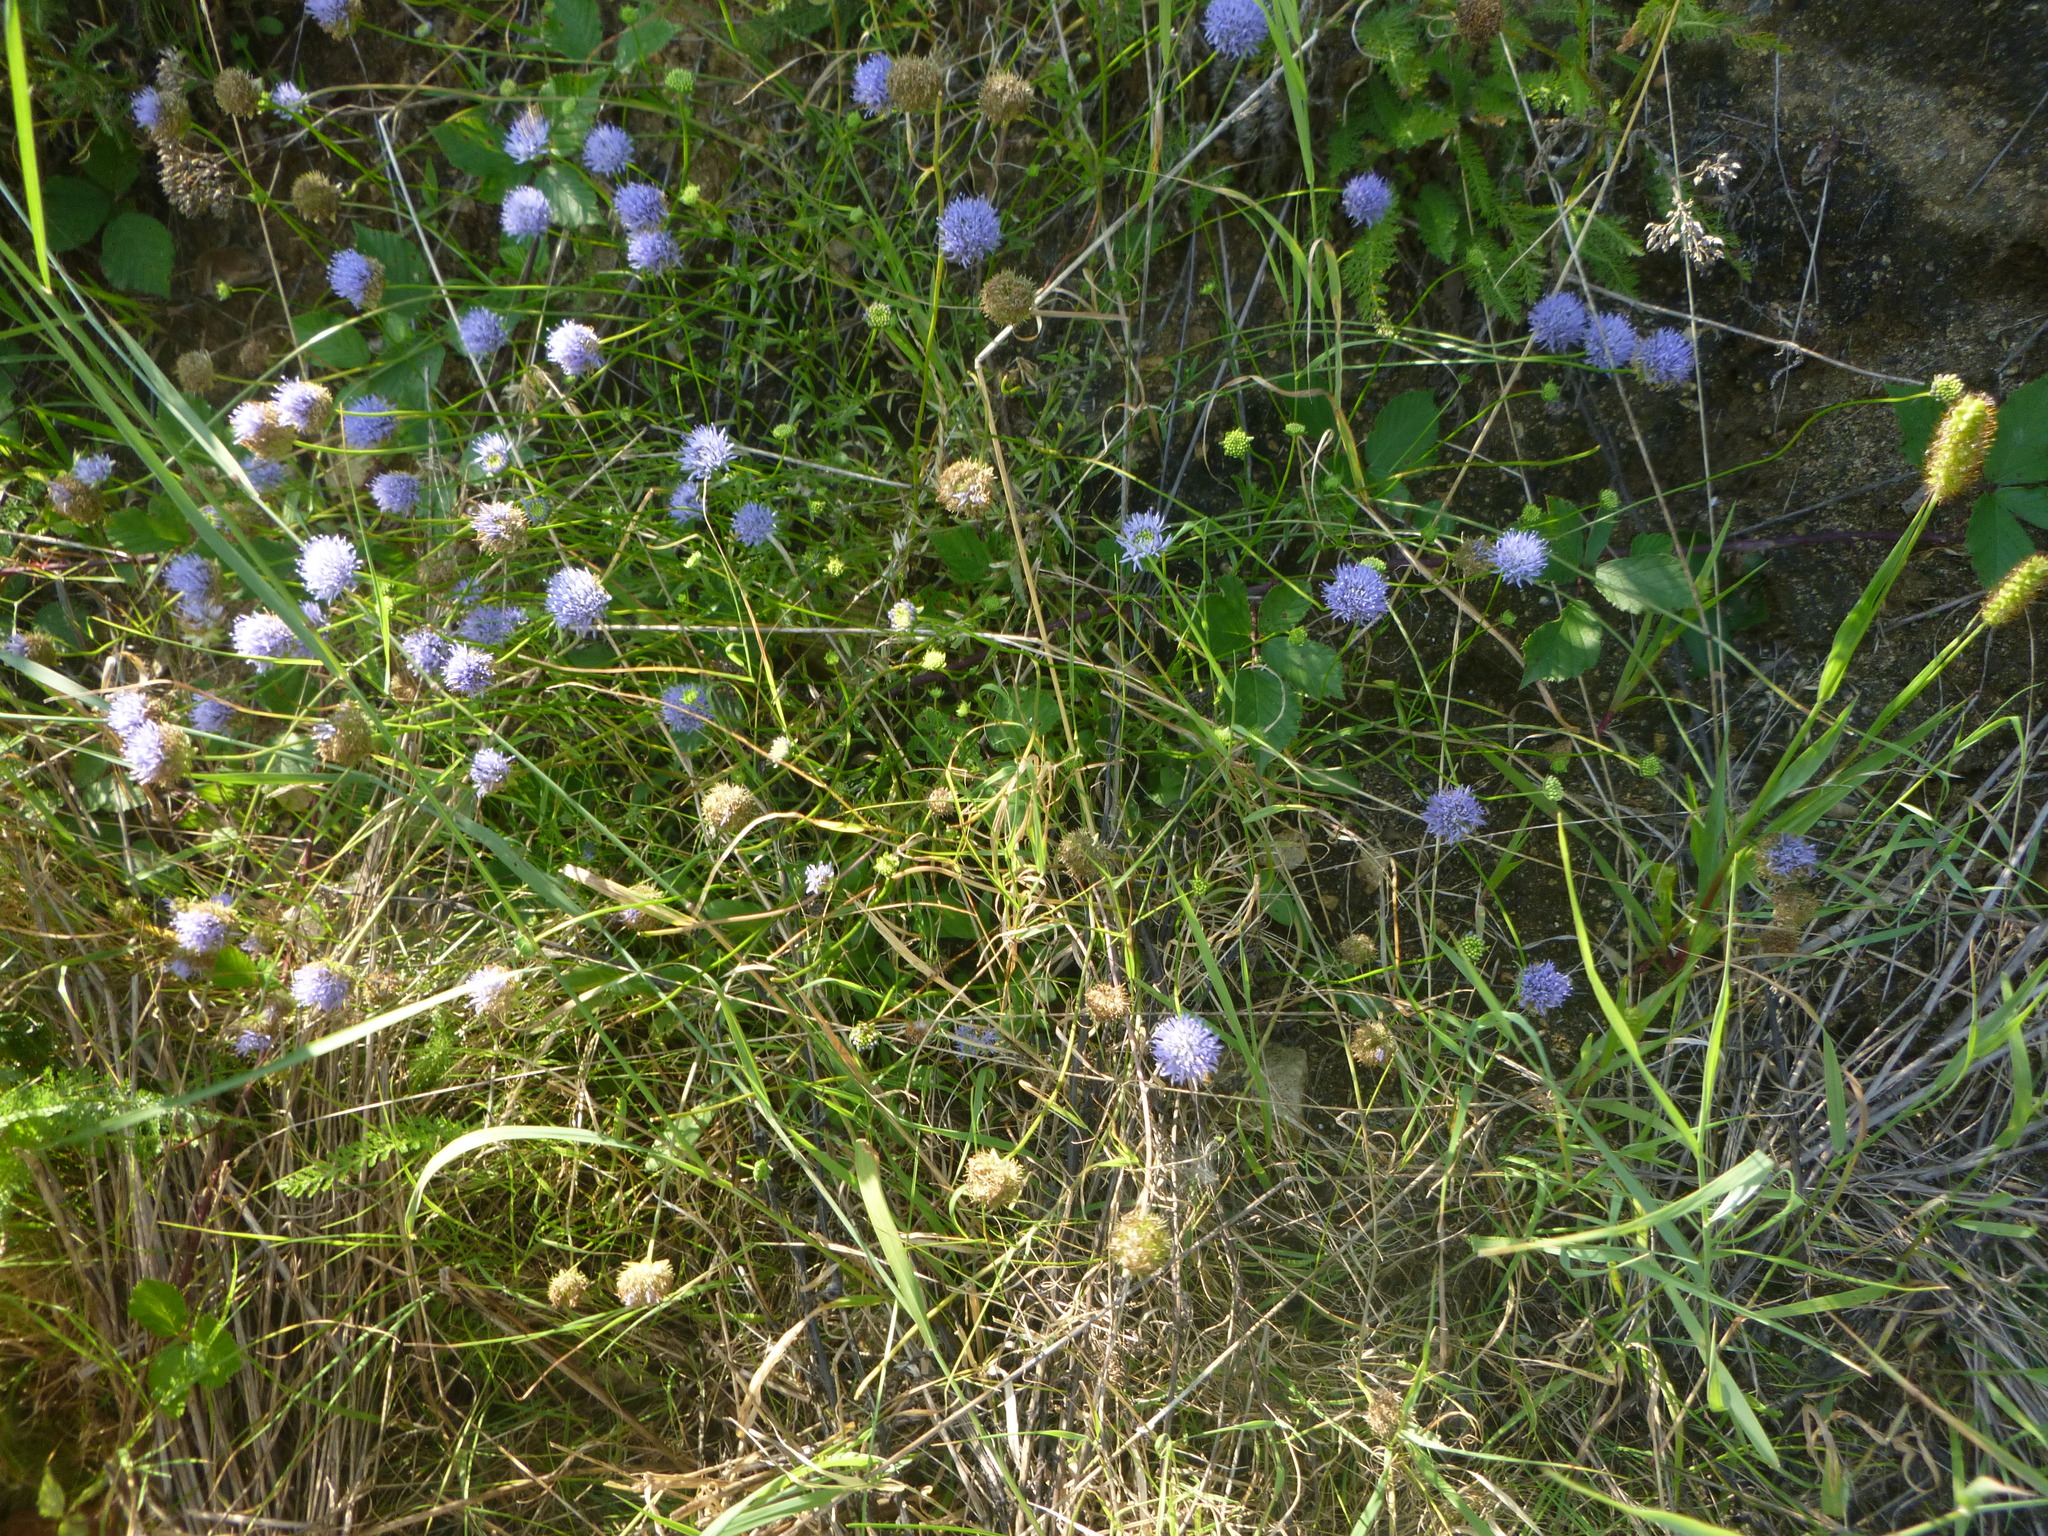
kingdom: Plantae
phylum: Tracheophyta
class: Magnoliopsida
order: Asterales
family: Campanulaceae
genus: Jasione
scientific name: Jasione montana
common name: Sheep's-bit
